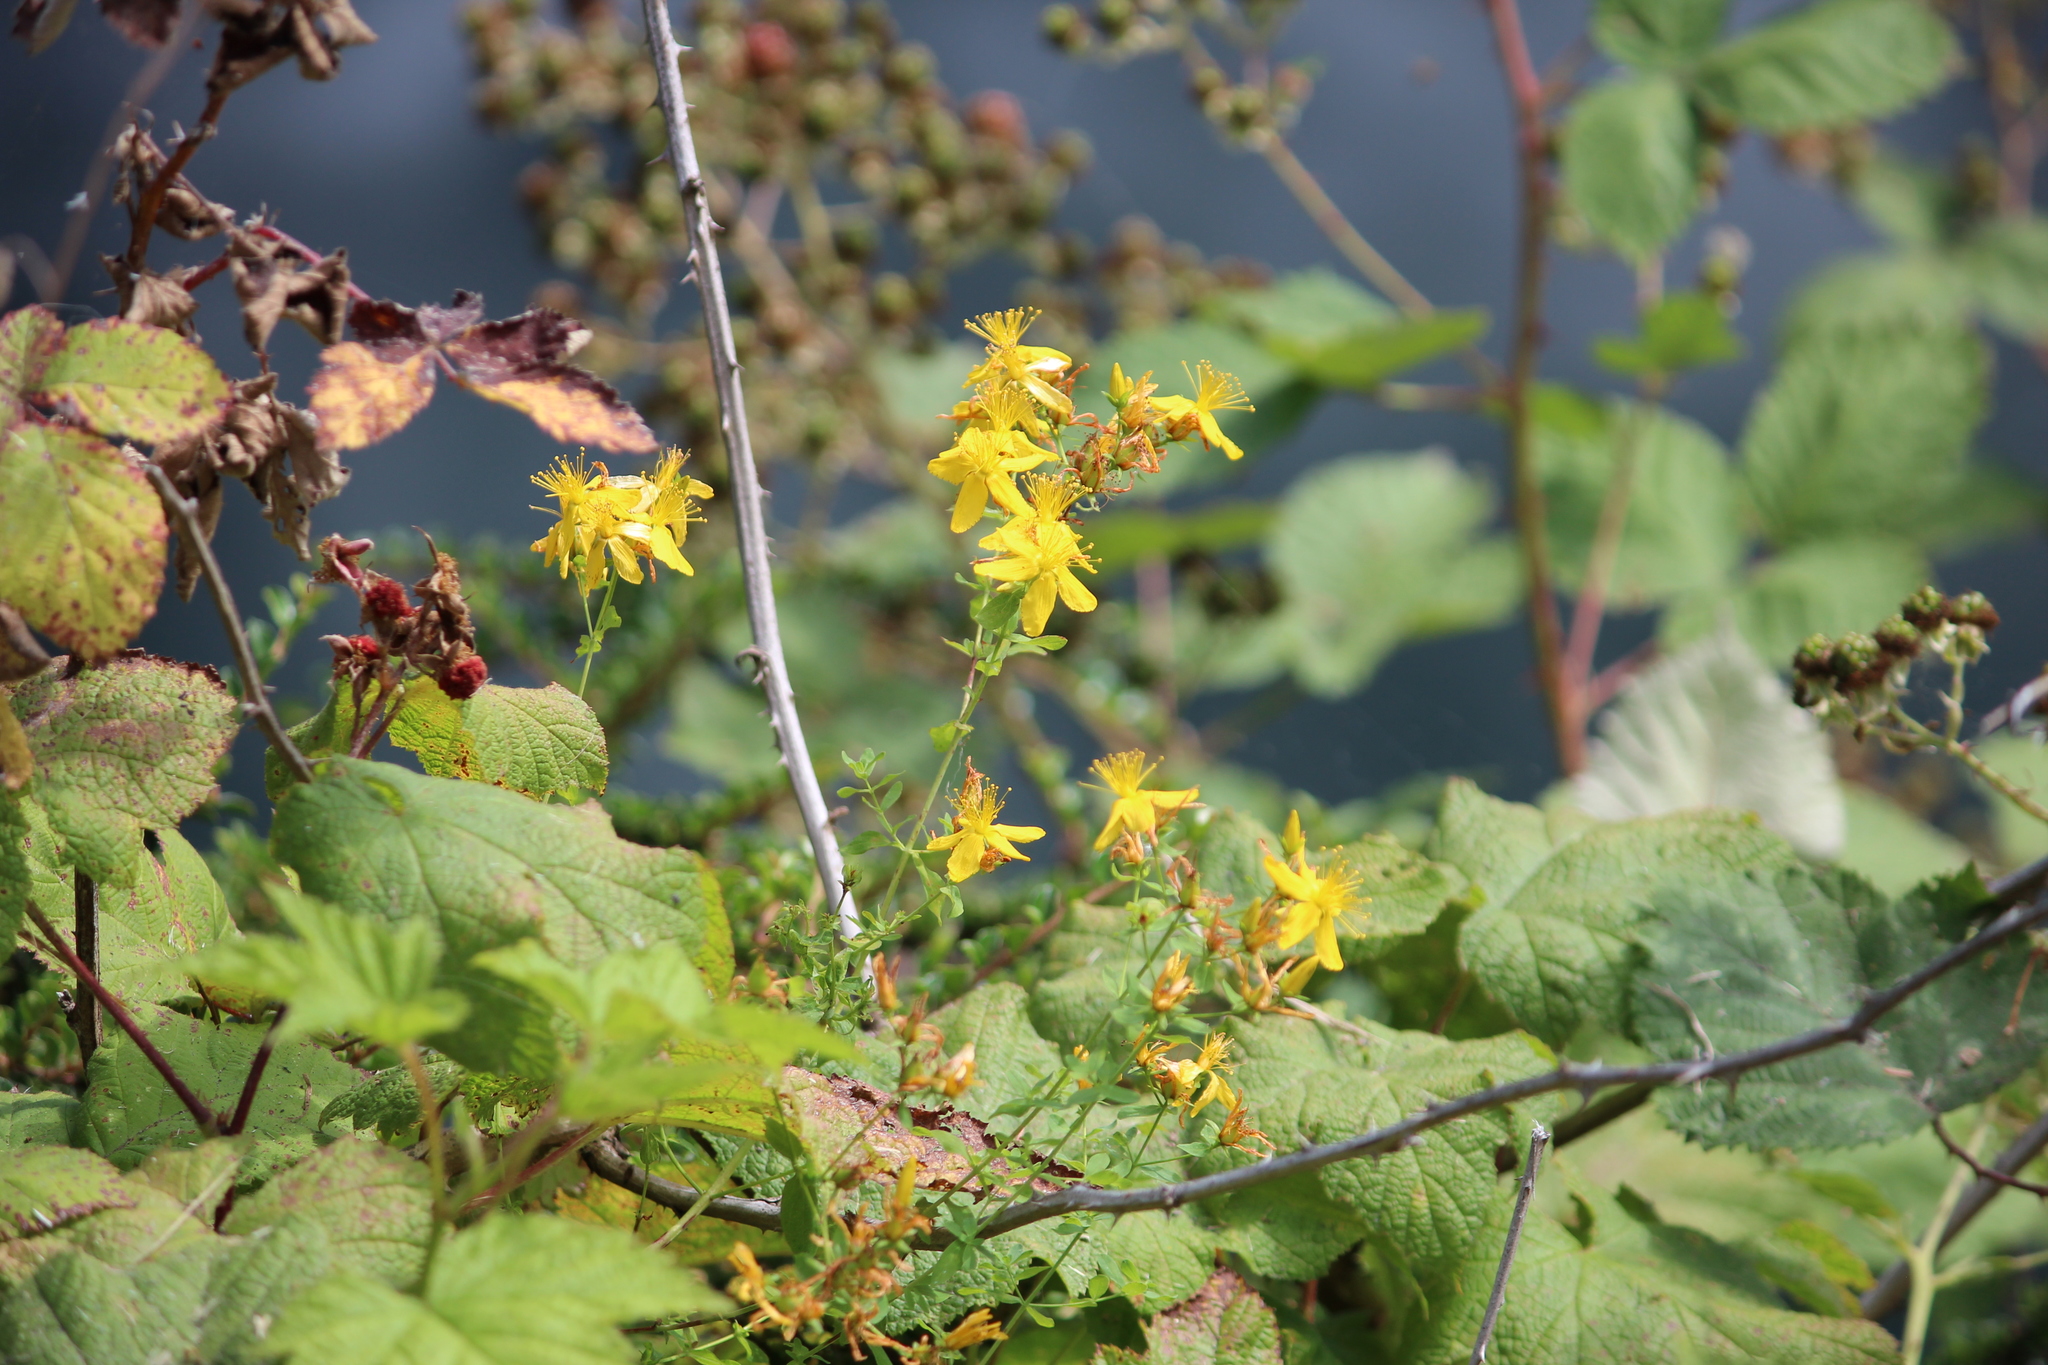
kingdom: Plantae
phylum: Tracheophyta
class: Magnoliopsida
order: Malpighiales
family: Hypericaceae
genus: Hypericum
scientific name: Hypericum perforatum
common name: Common st. johnswort
